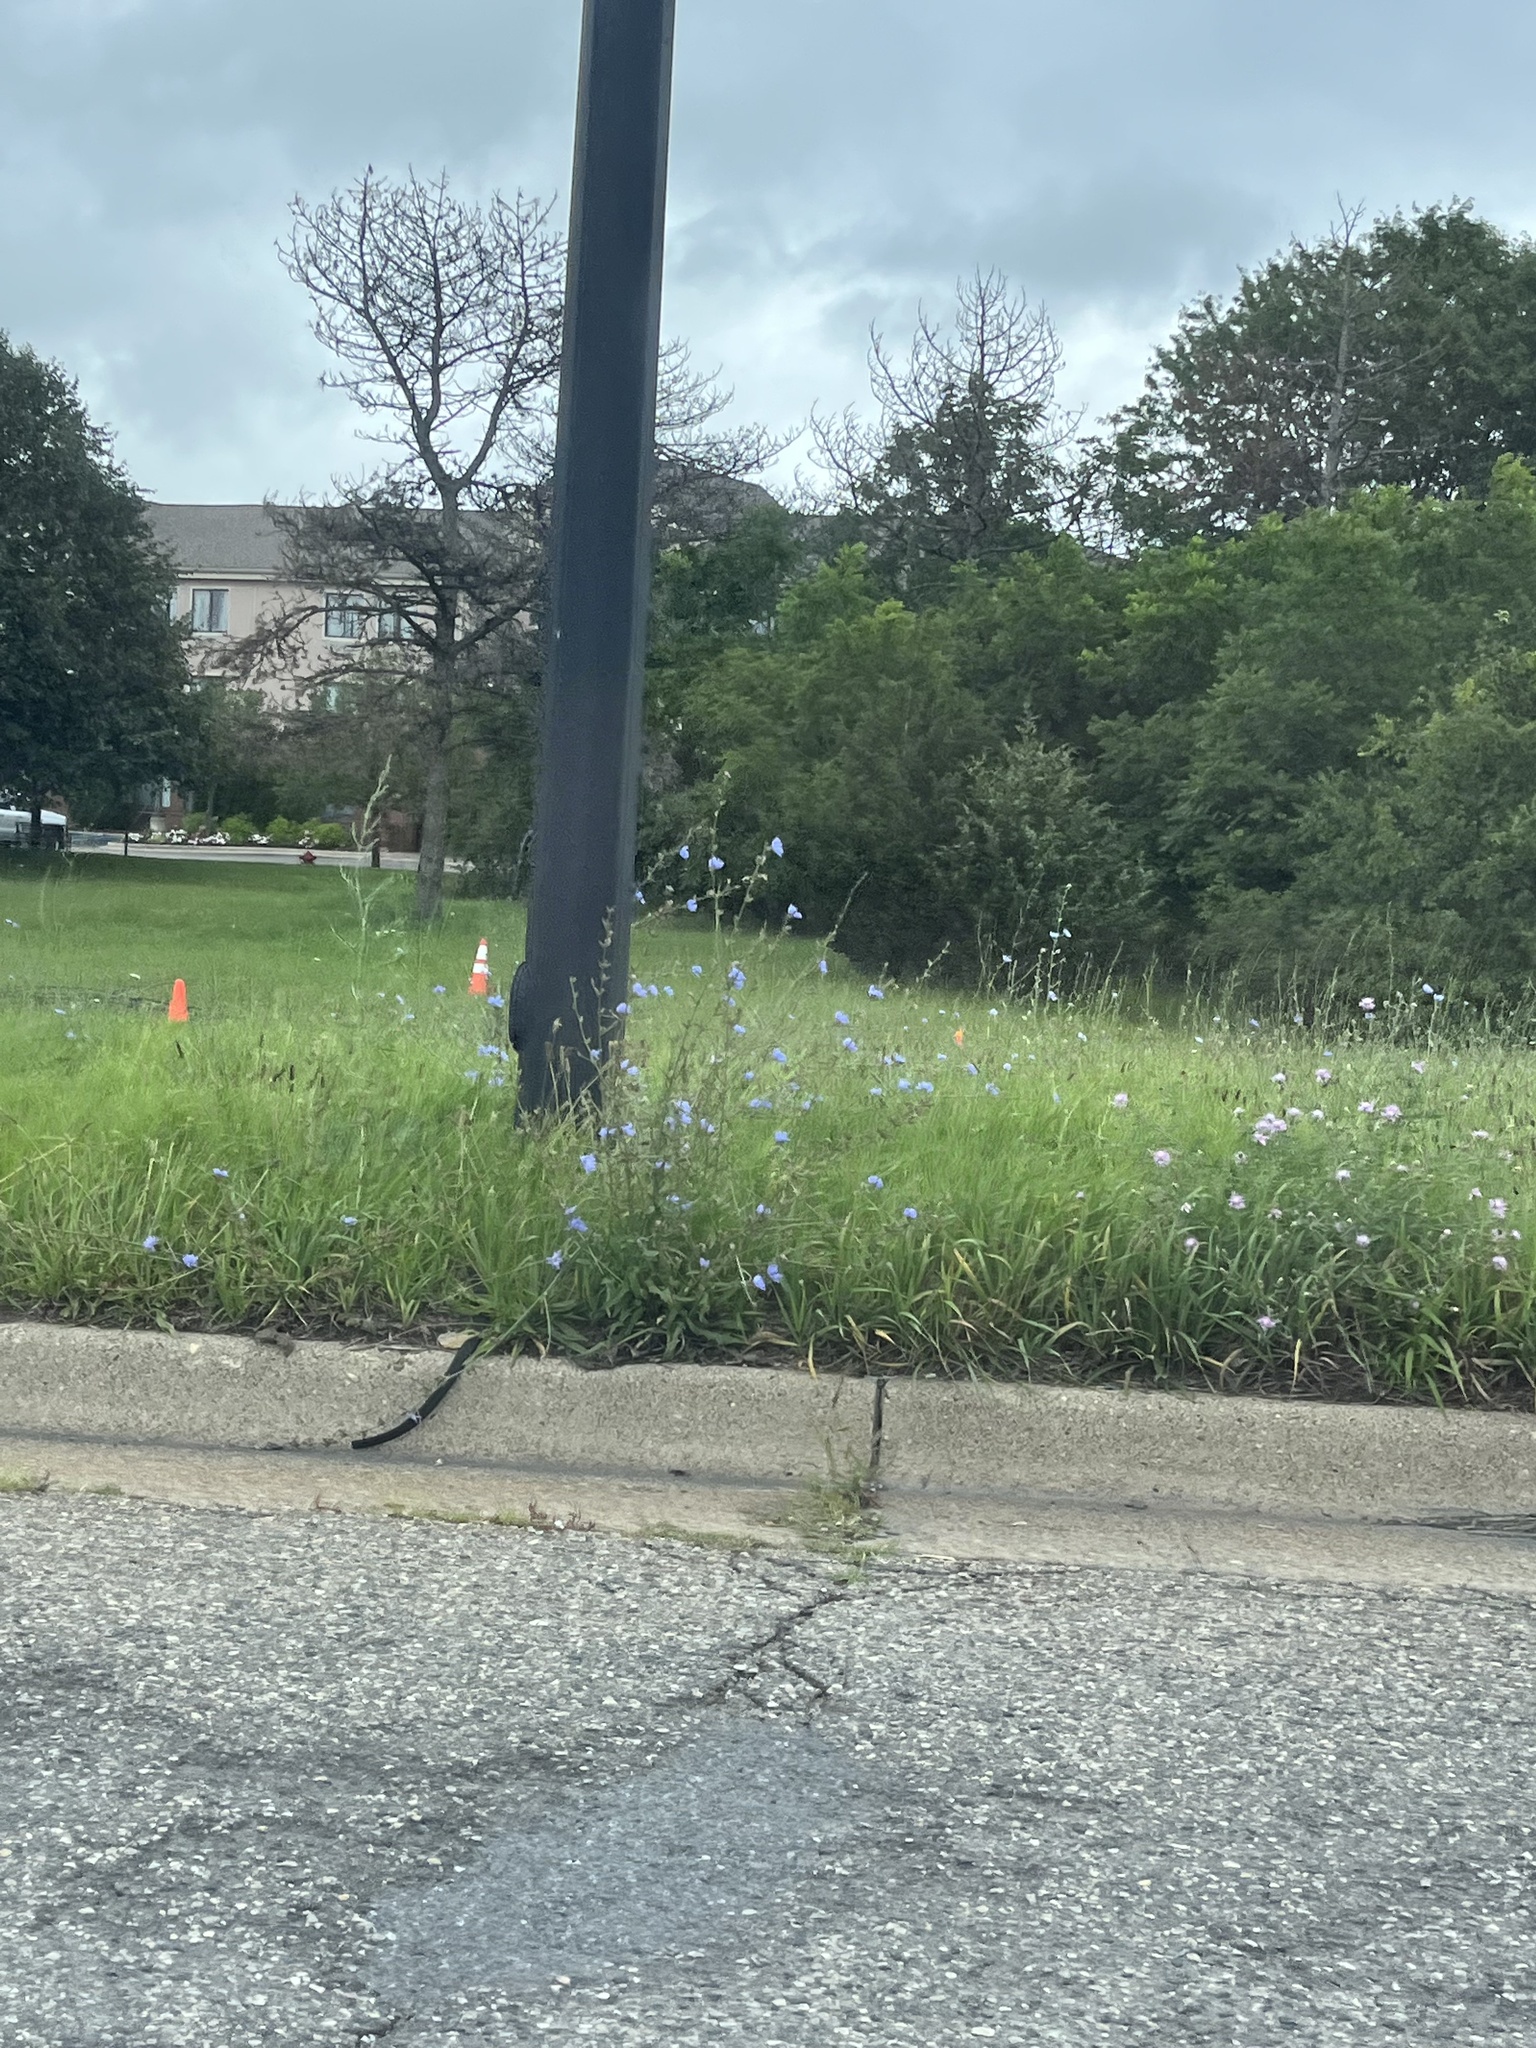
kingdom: Plantae
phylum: Tracheophyta
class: Magnoliopsida
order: Asterales
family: Asteraceae
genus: Cichorium
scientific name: Cichorium intybus
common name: Chicory
